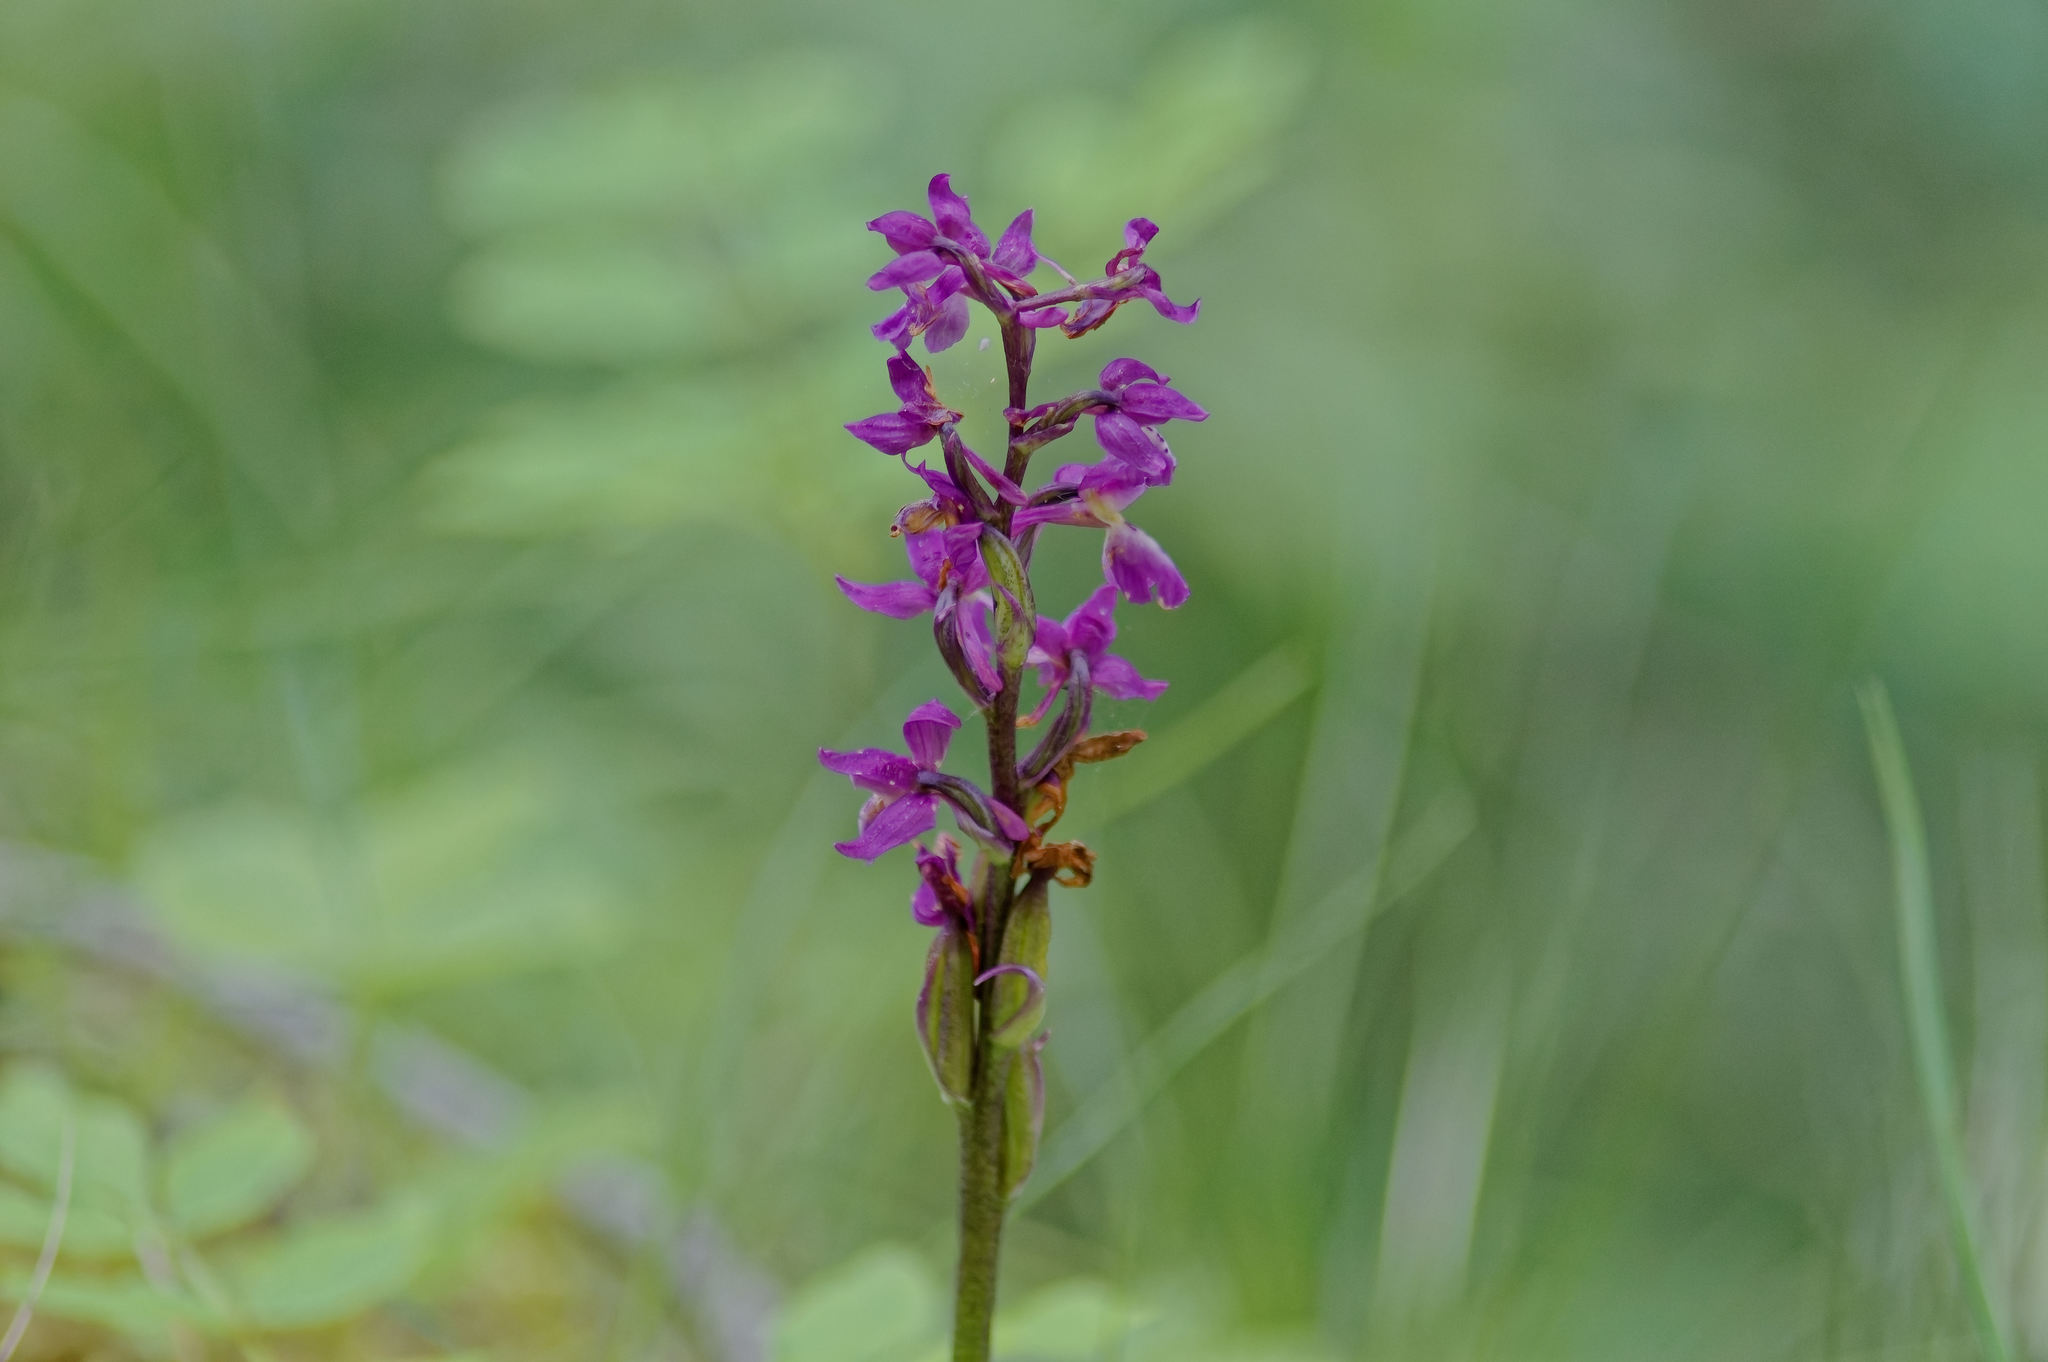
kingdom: Plantae
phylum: Tracheophyta
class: Liliopsida
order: Asparagales
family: Orchidaceae
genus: Orchis
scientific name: Orchis mascula
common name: Early-purple orchid
